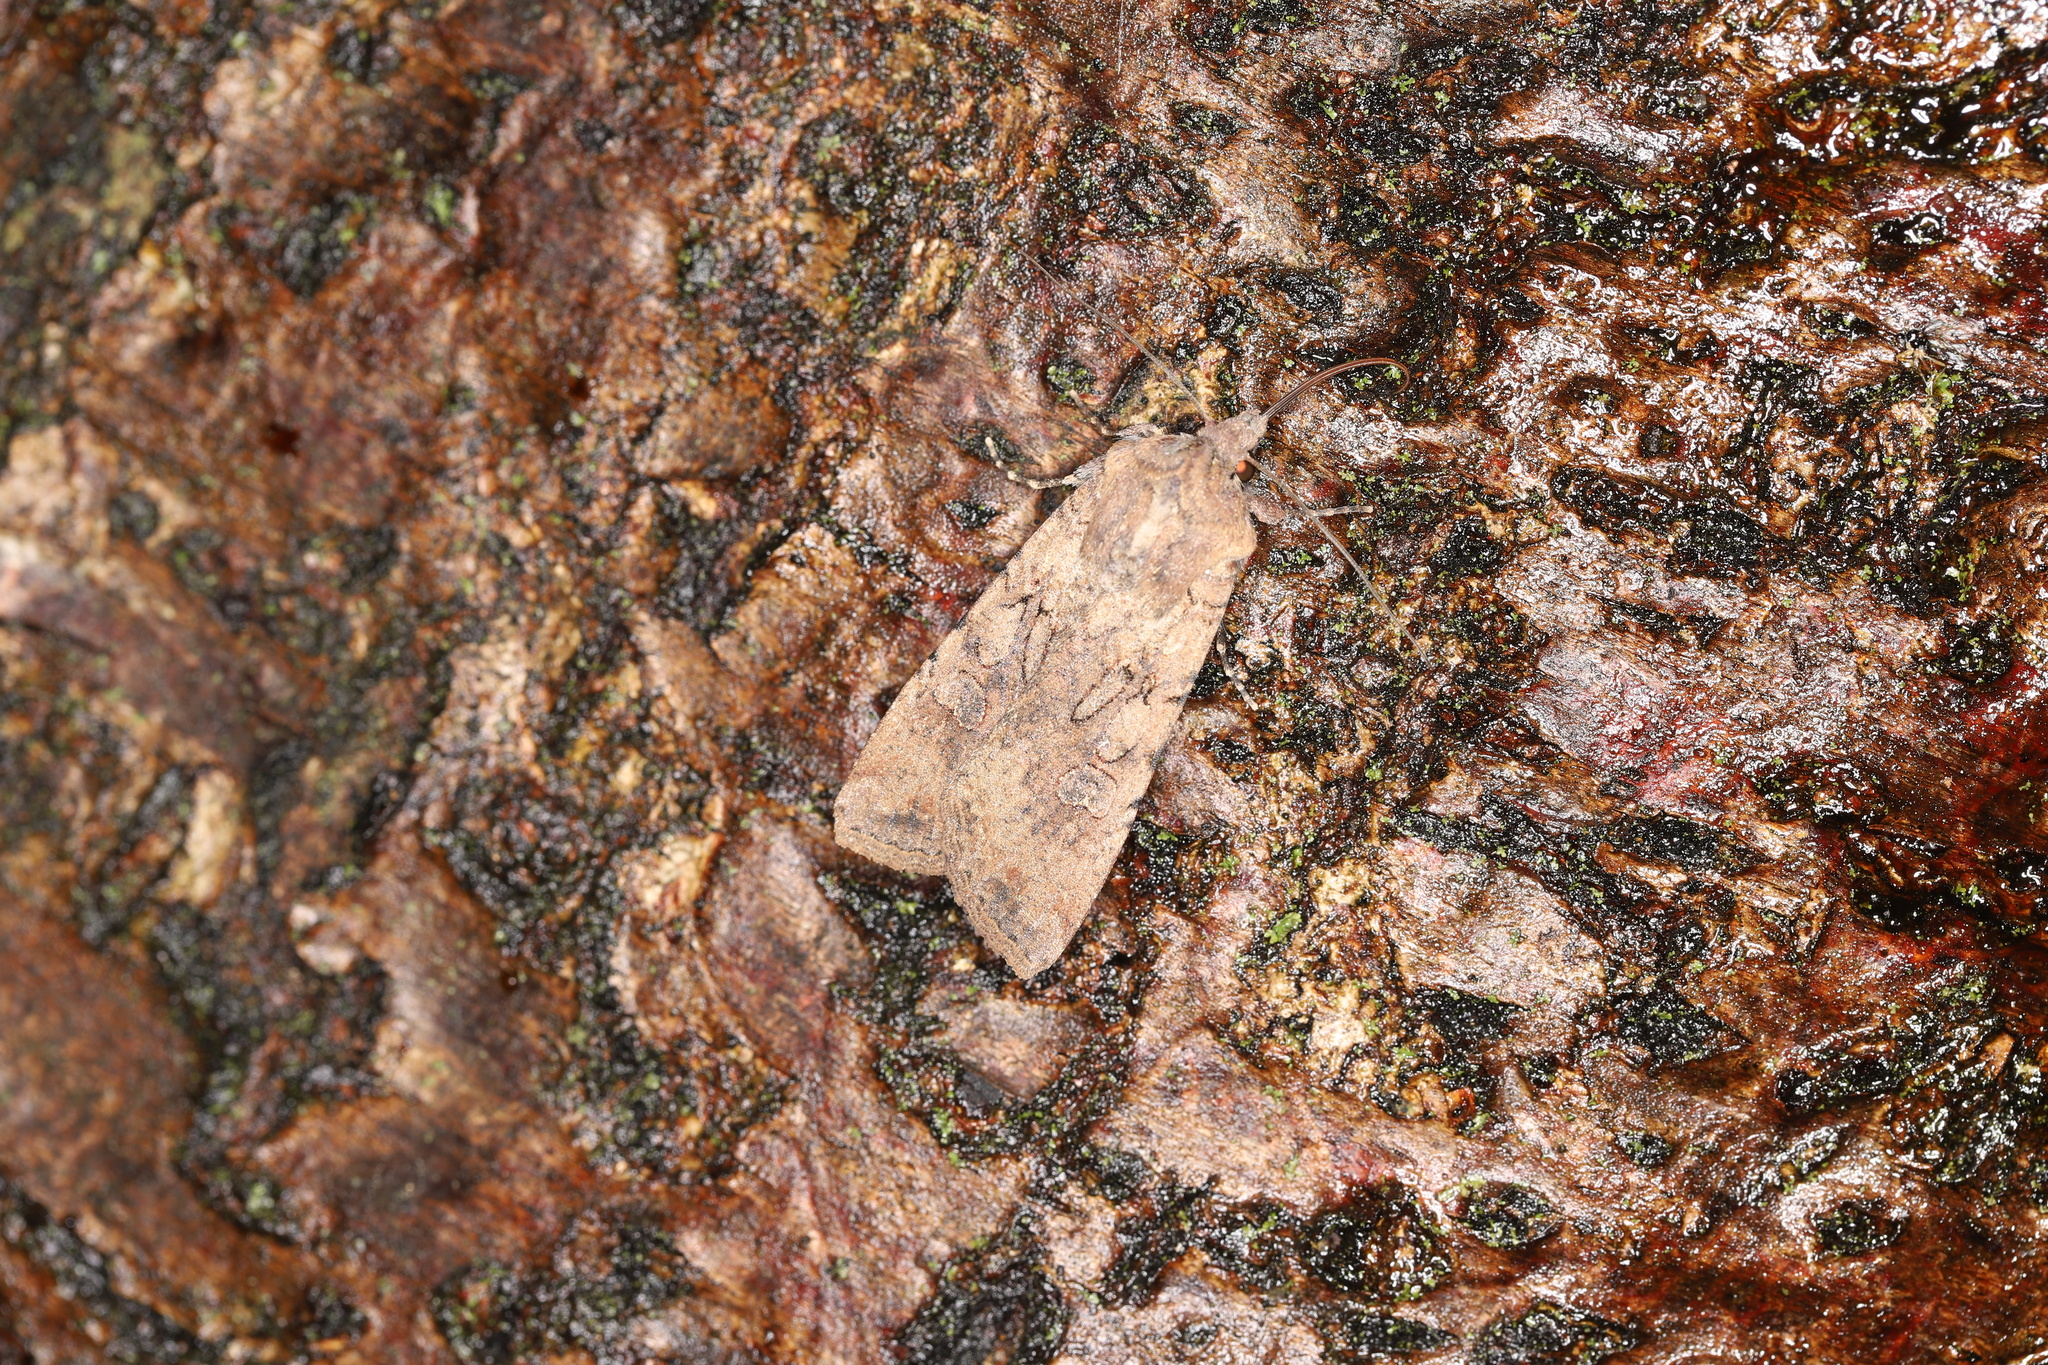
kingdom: Animalia
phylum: Arthropoda
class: Insecta
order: Lepidoptera
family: Noctuidae
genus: Peridroma
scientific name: Peridroma saucia
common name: Pearly underwing
